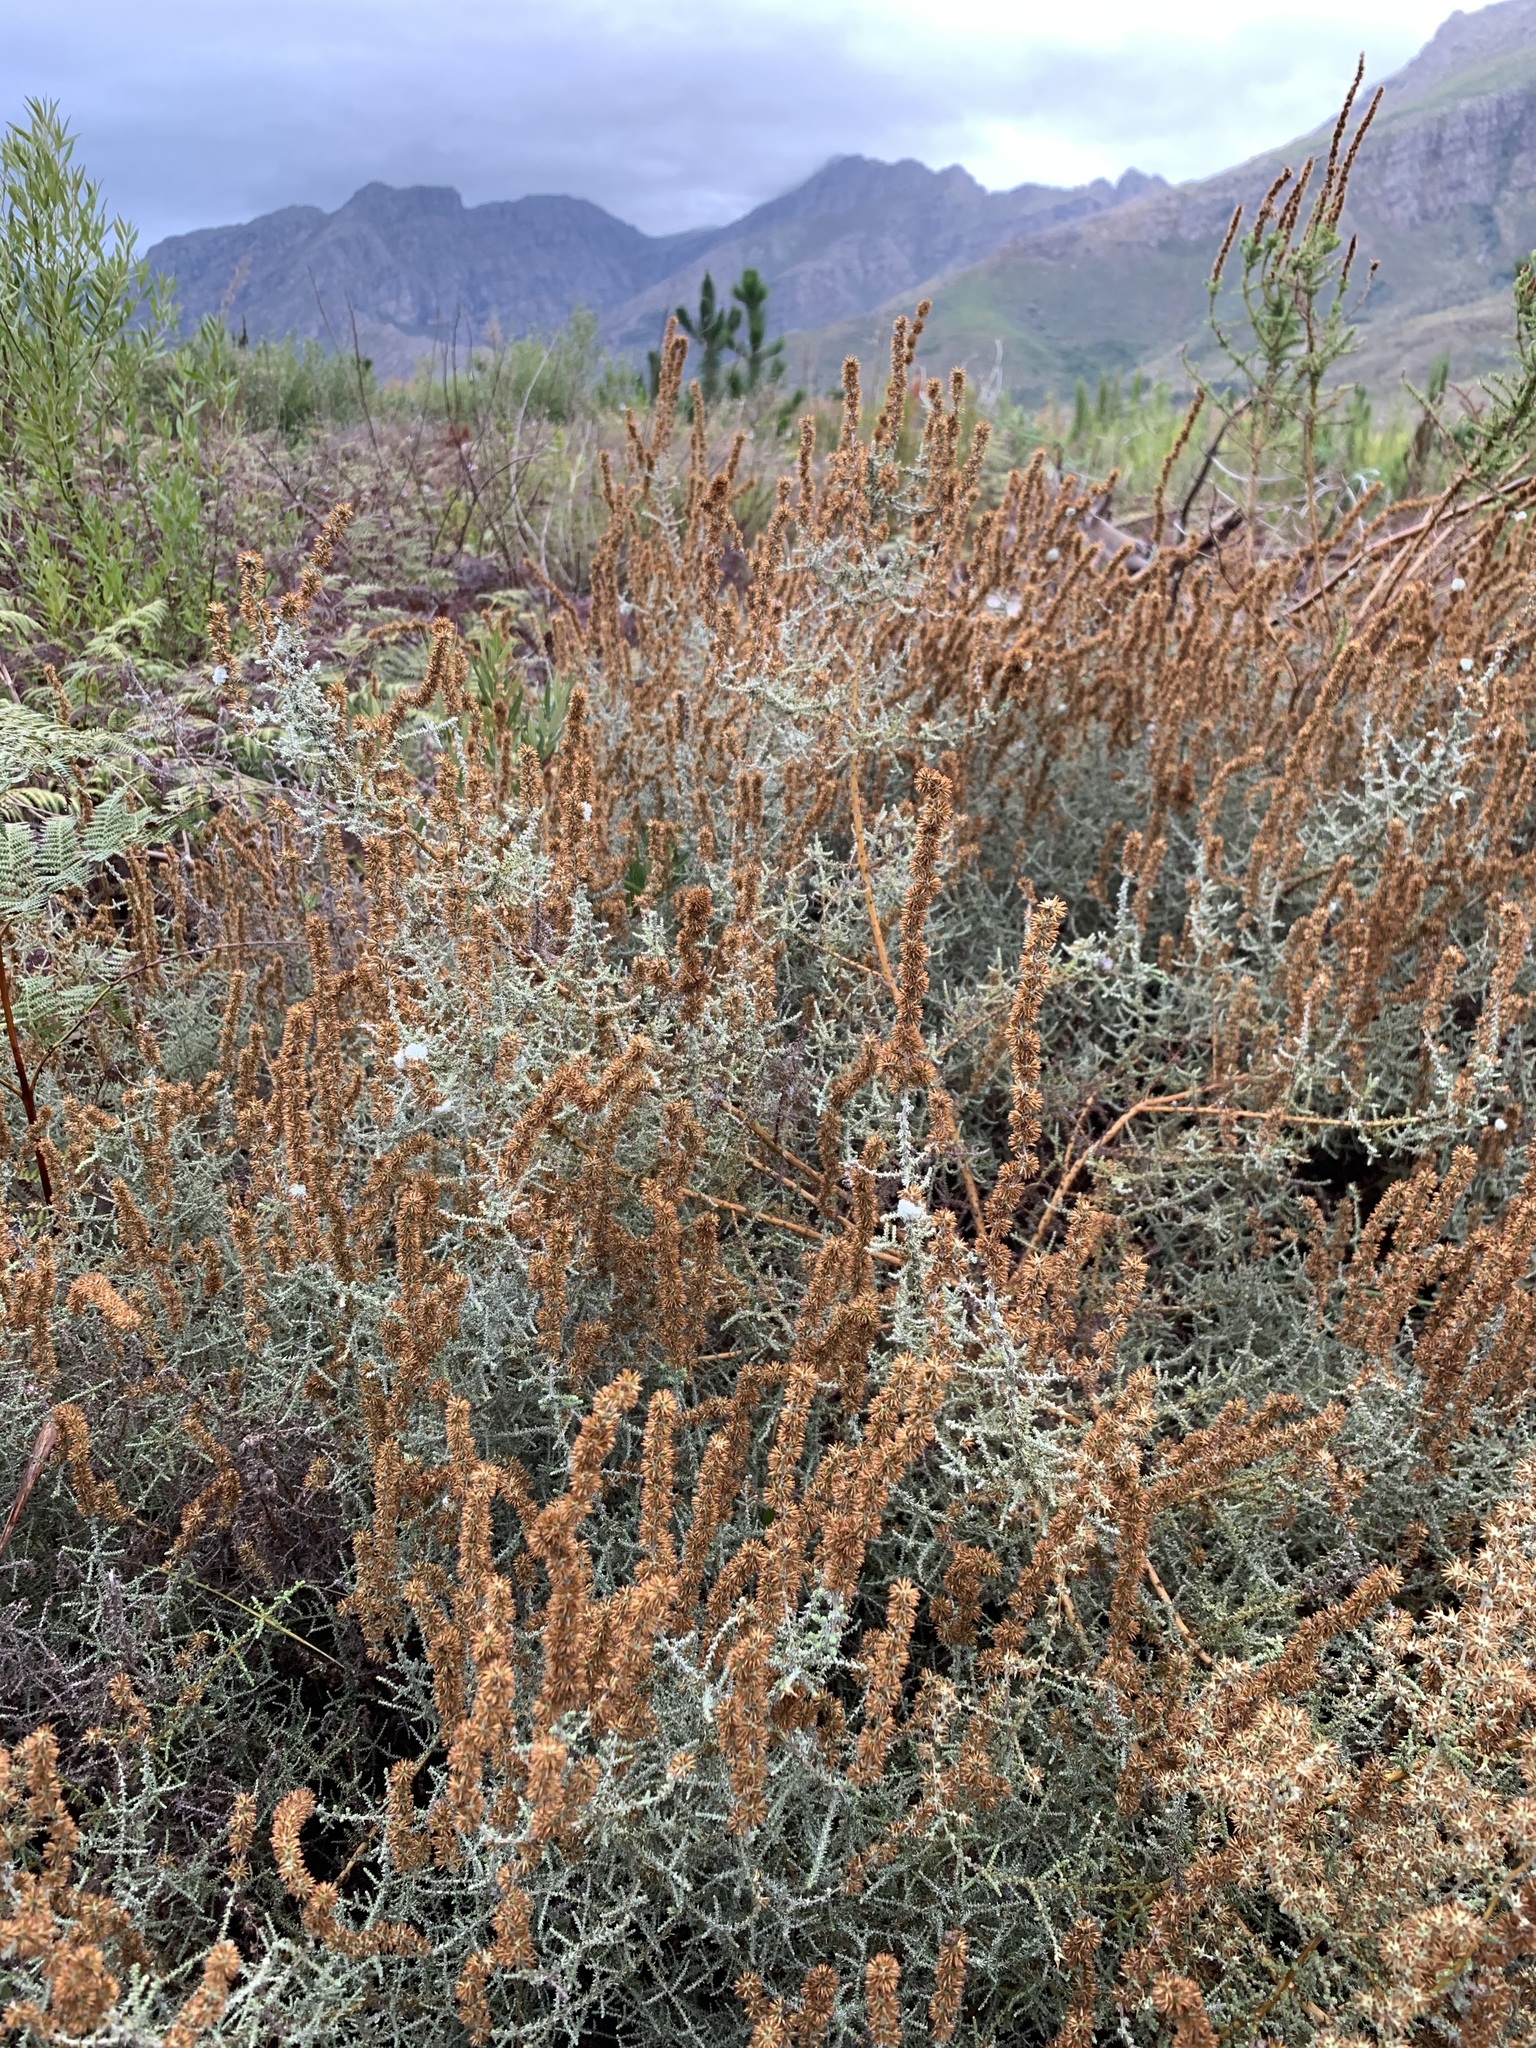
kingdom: Plantae
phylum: Tracheophyta
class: Magnoliopsida
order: Asterales
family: Asteraceae
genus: Seriphium
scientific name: Seriphium plumosum
